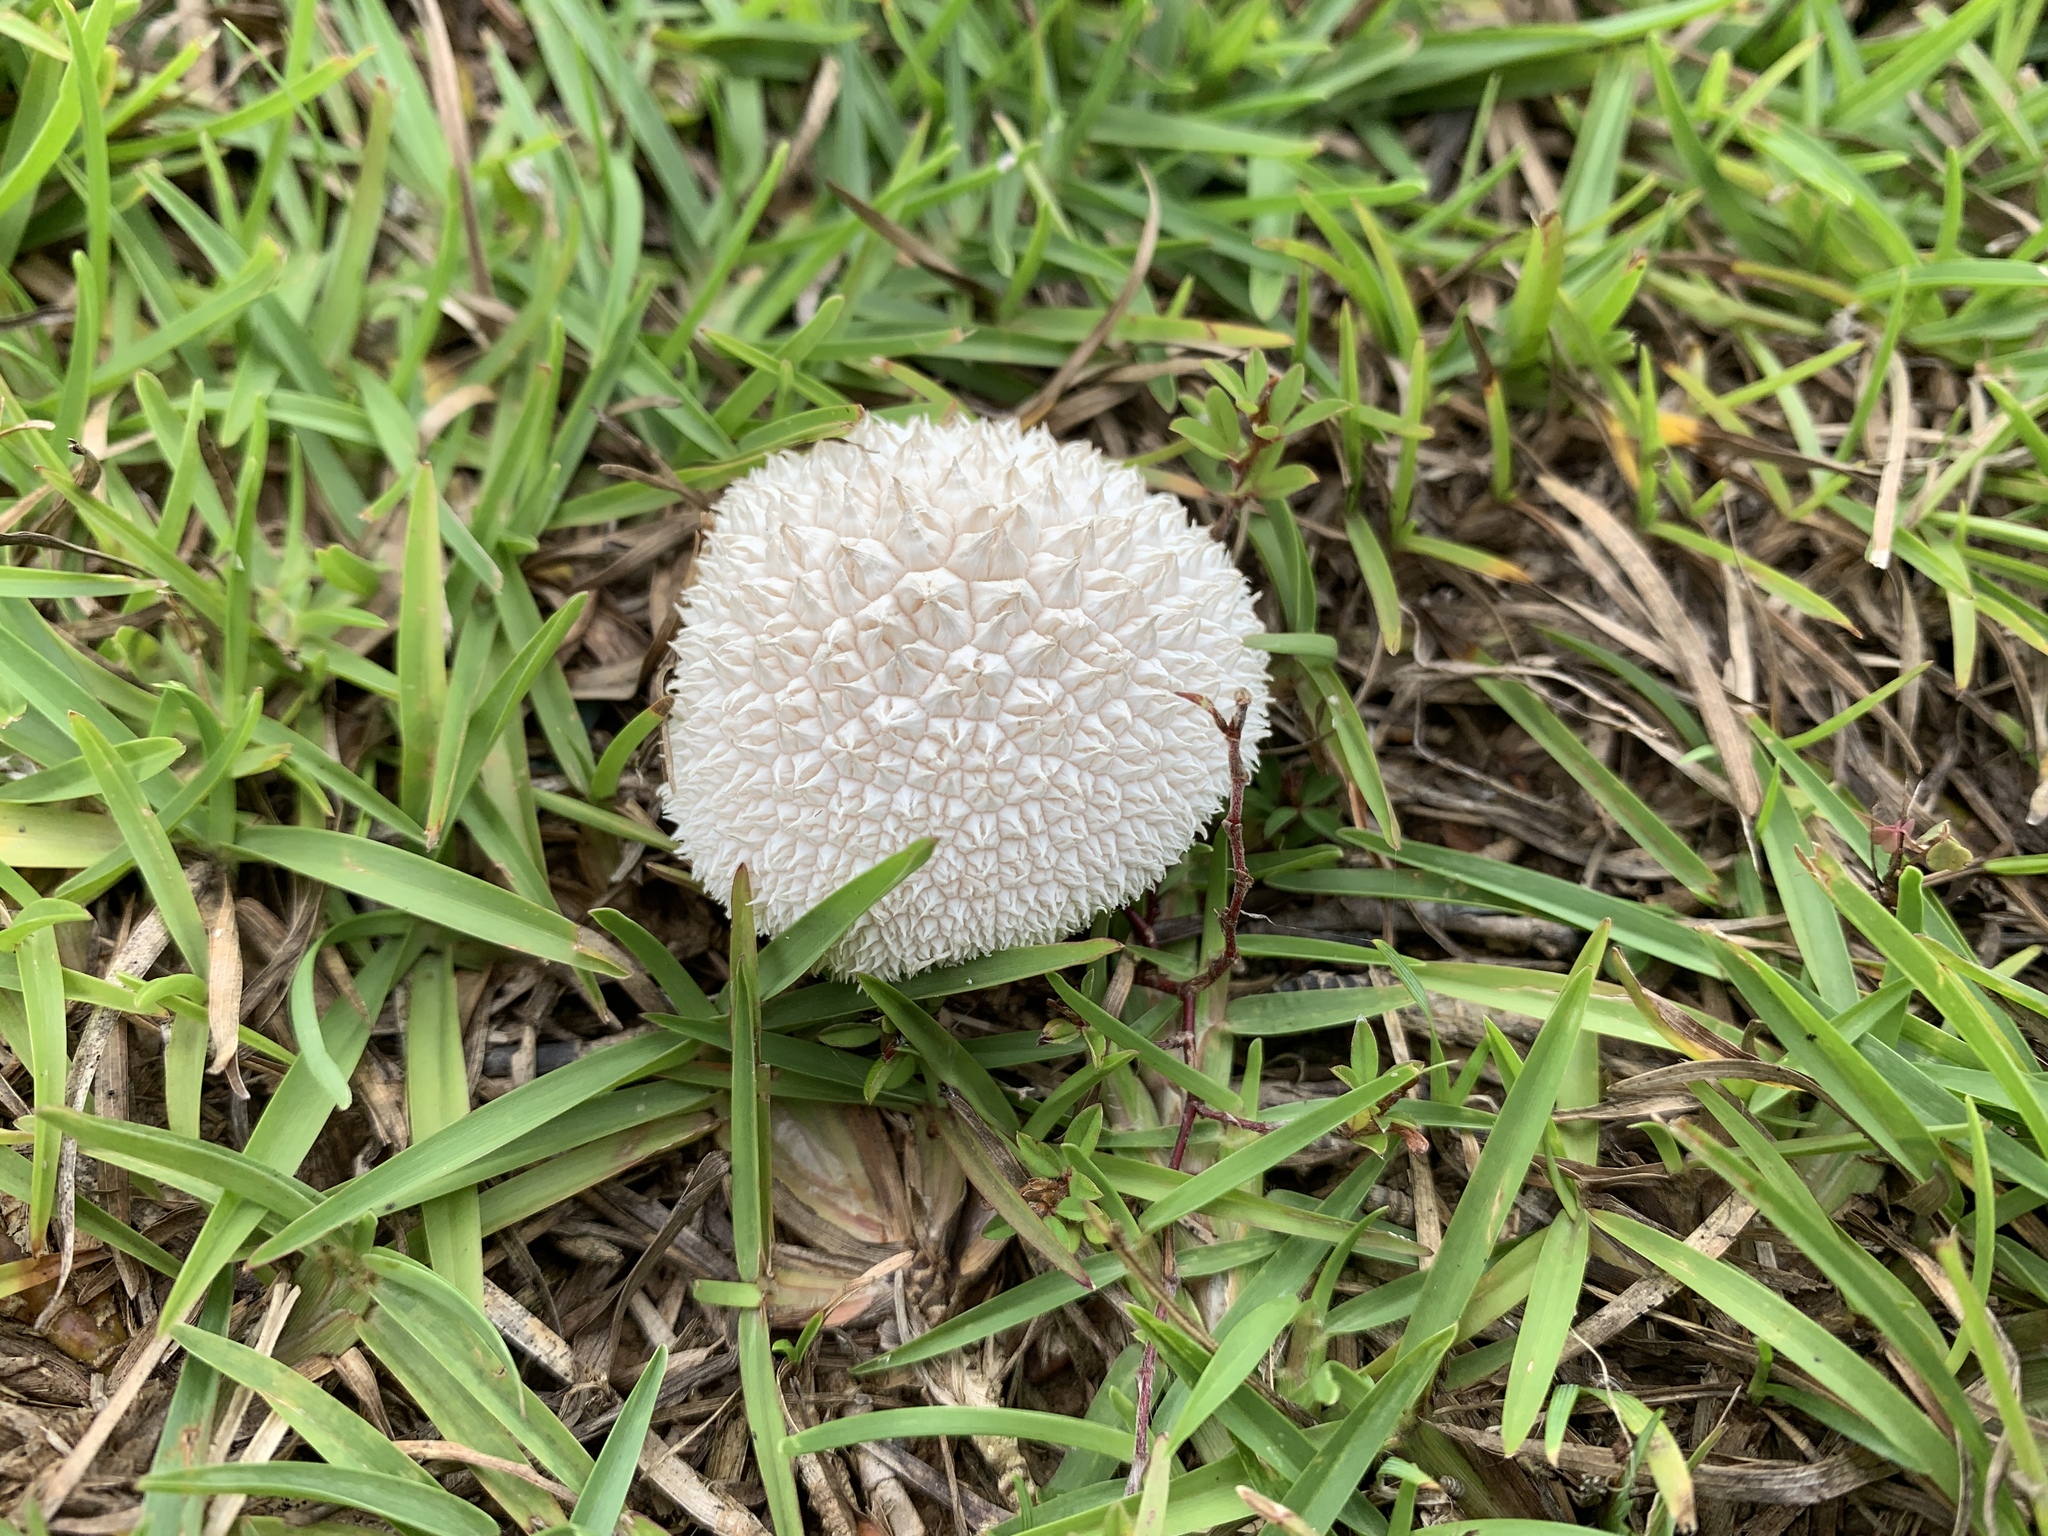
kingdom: Fungi
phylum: Basidiomycota
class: Agaricomycetes
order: Agaricales
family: Agaricaceae
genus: Lycoperdon
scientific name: Lycoperdon marginatum
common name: Peeling puffball
